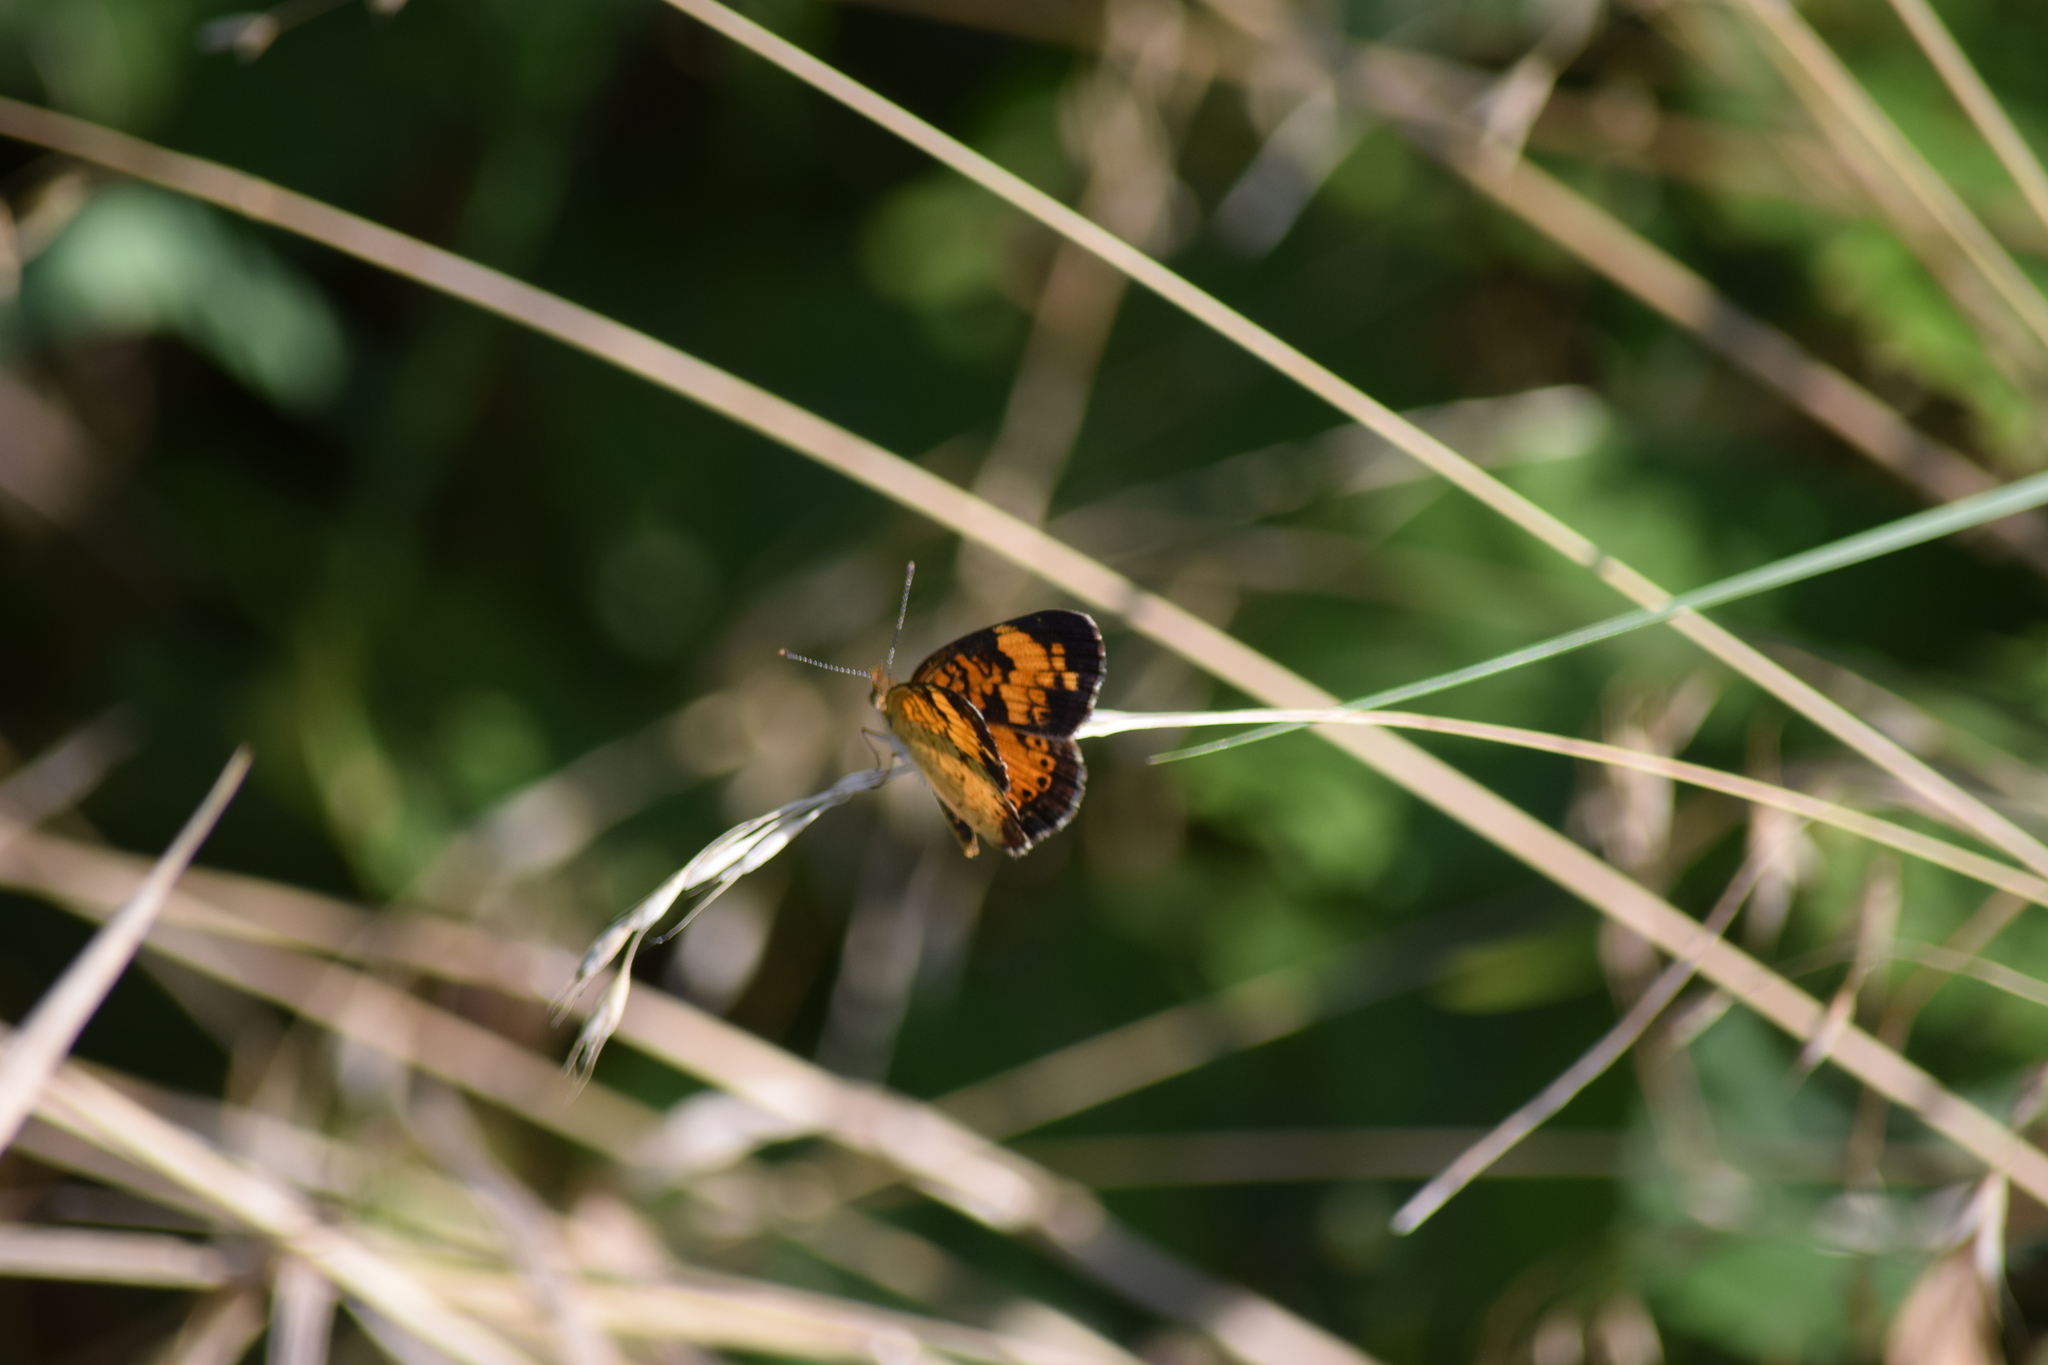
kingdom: Animalia
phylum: Arthropoda
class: Insecta
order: Lepidoptera
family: Nymphalidae
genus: Phyciodes
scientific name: Phyciodes tharos
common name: Pearl crescent
